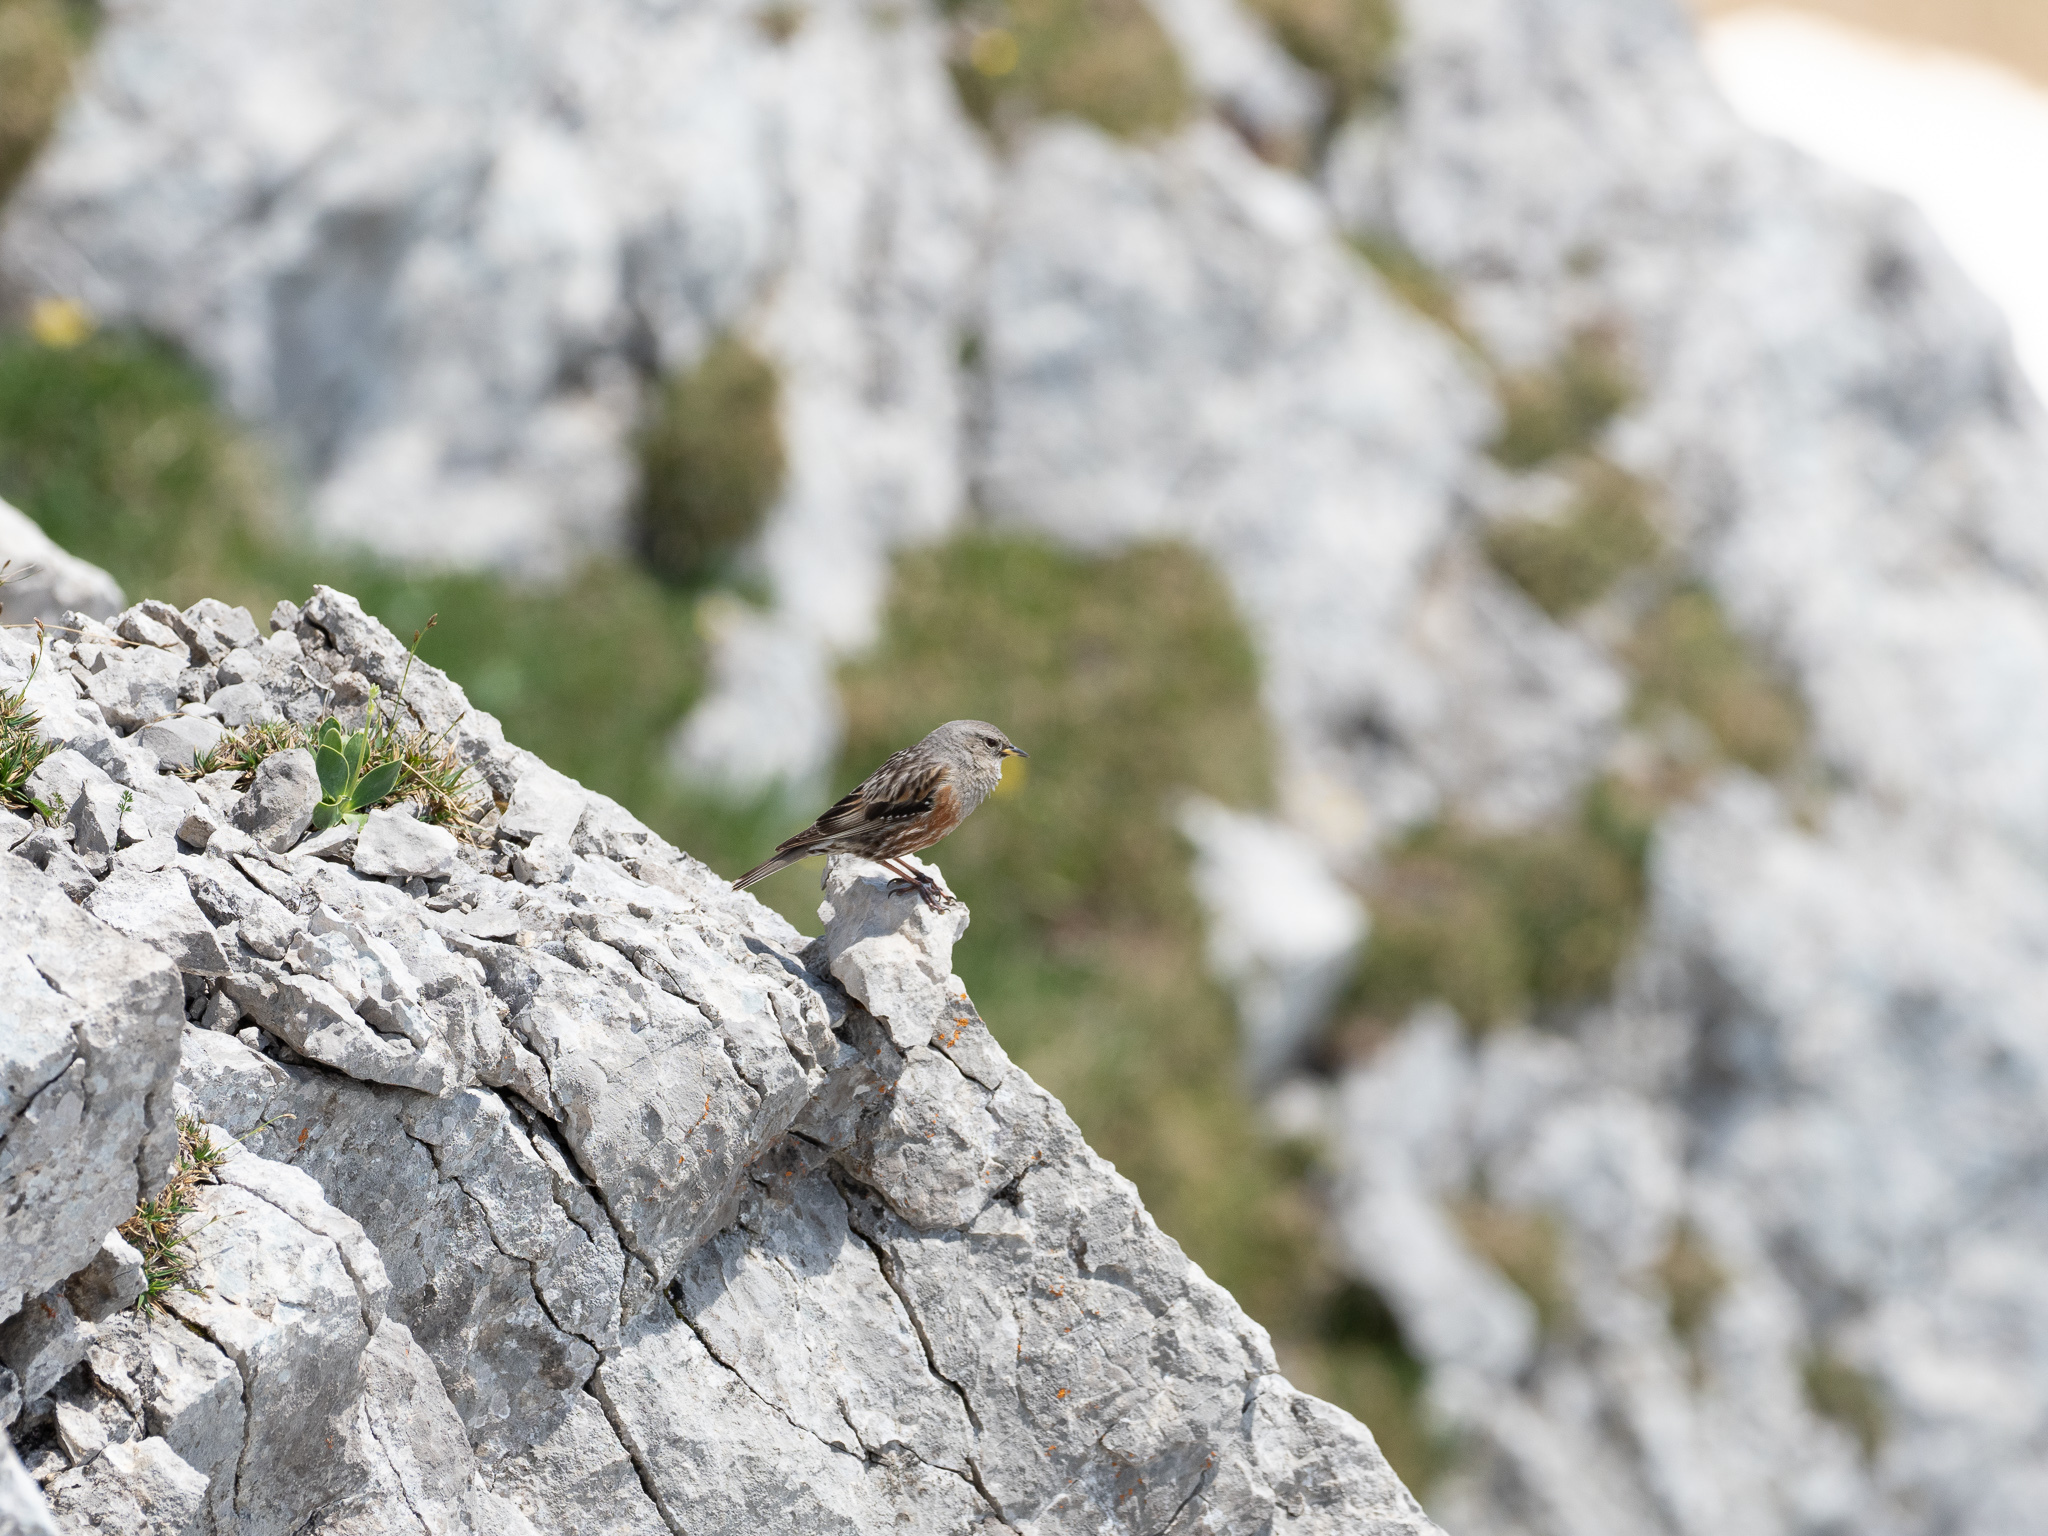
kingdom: Animalia
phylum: Chordata
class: Aves
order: Passeriformes
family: Prunellidae
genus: Prunella
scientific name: Prunella collaris
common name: Alpine accentor
